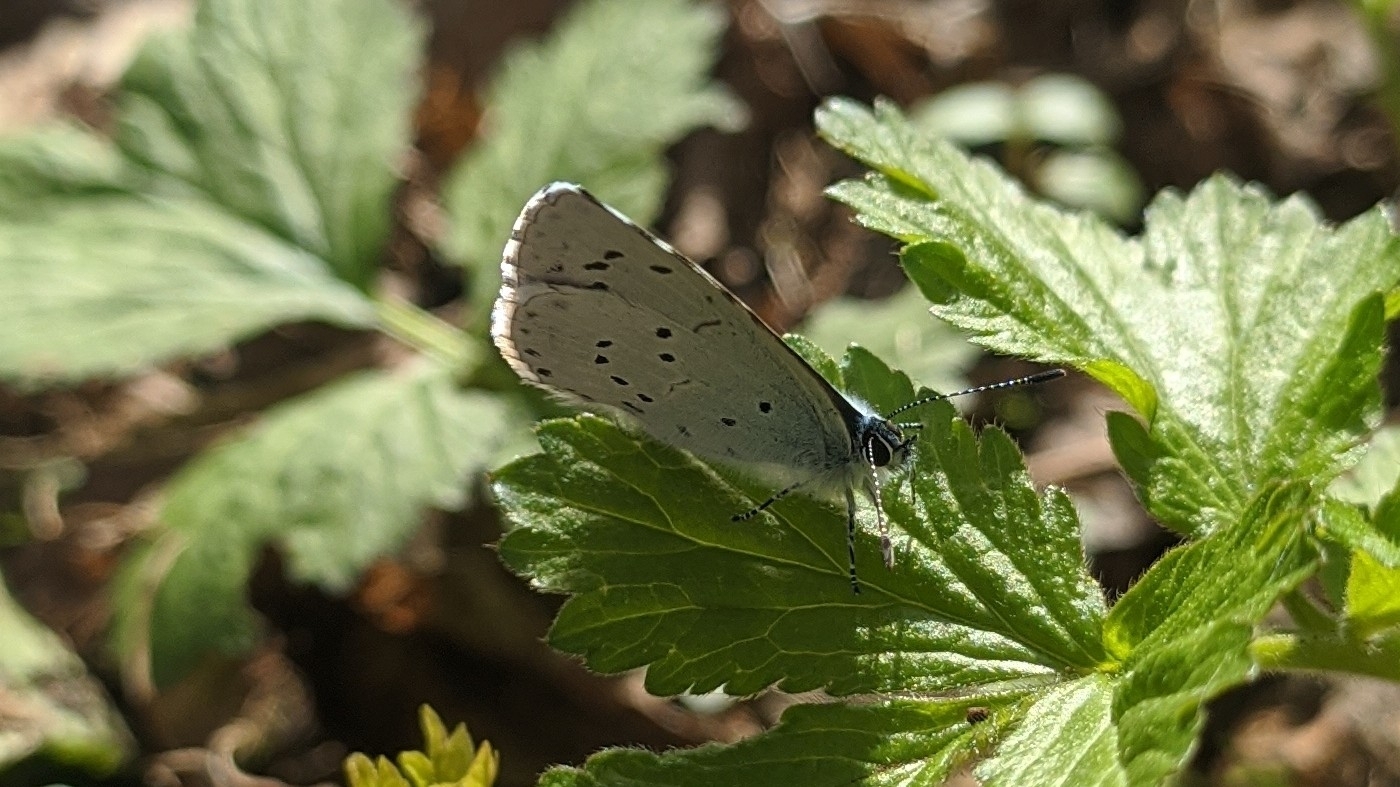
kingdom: Animalia
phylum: Arthropoda
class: Insecta
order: Lepidoptera
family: Lycaenidae
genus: Celastrina
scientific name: Celastrina argiolus
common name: Holly blue
